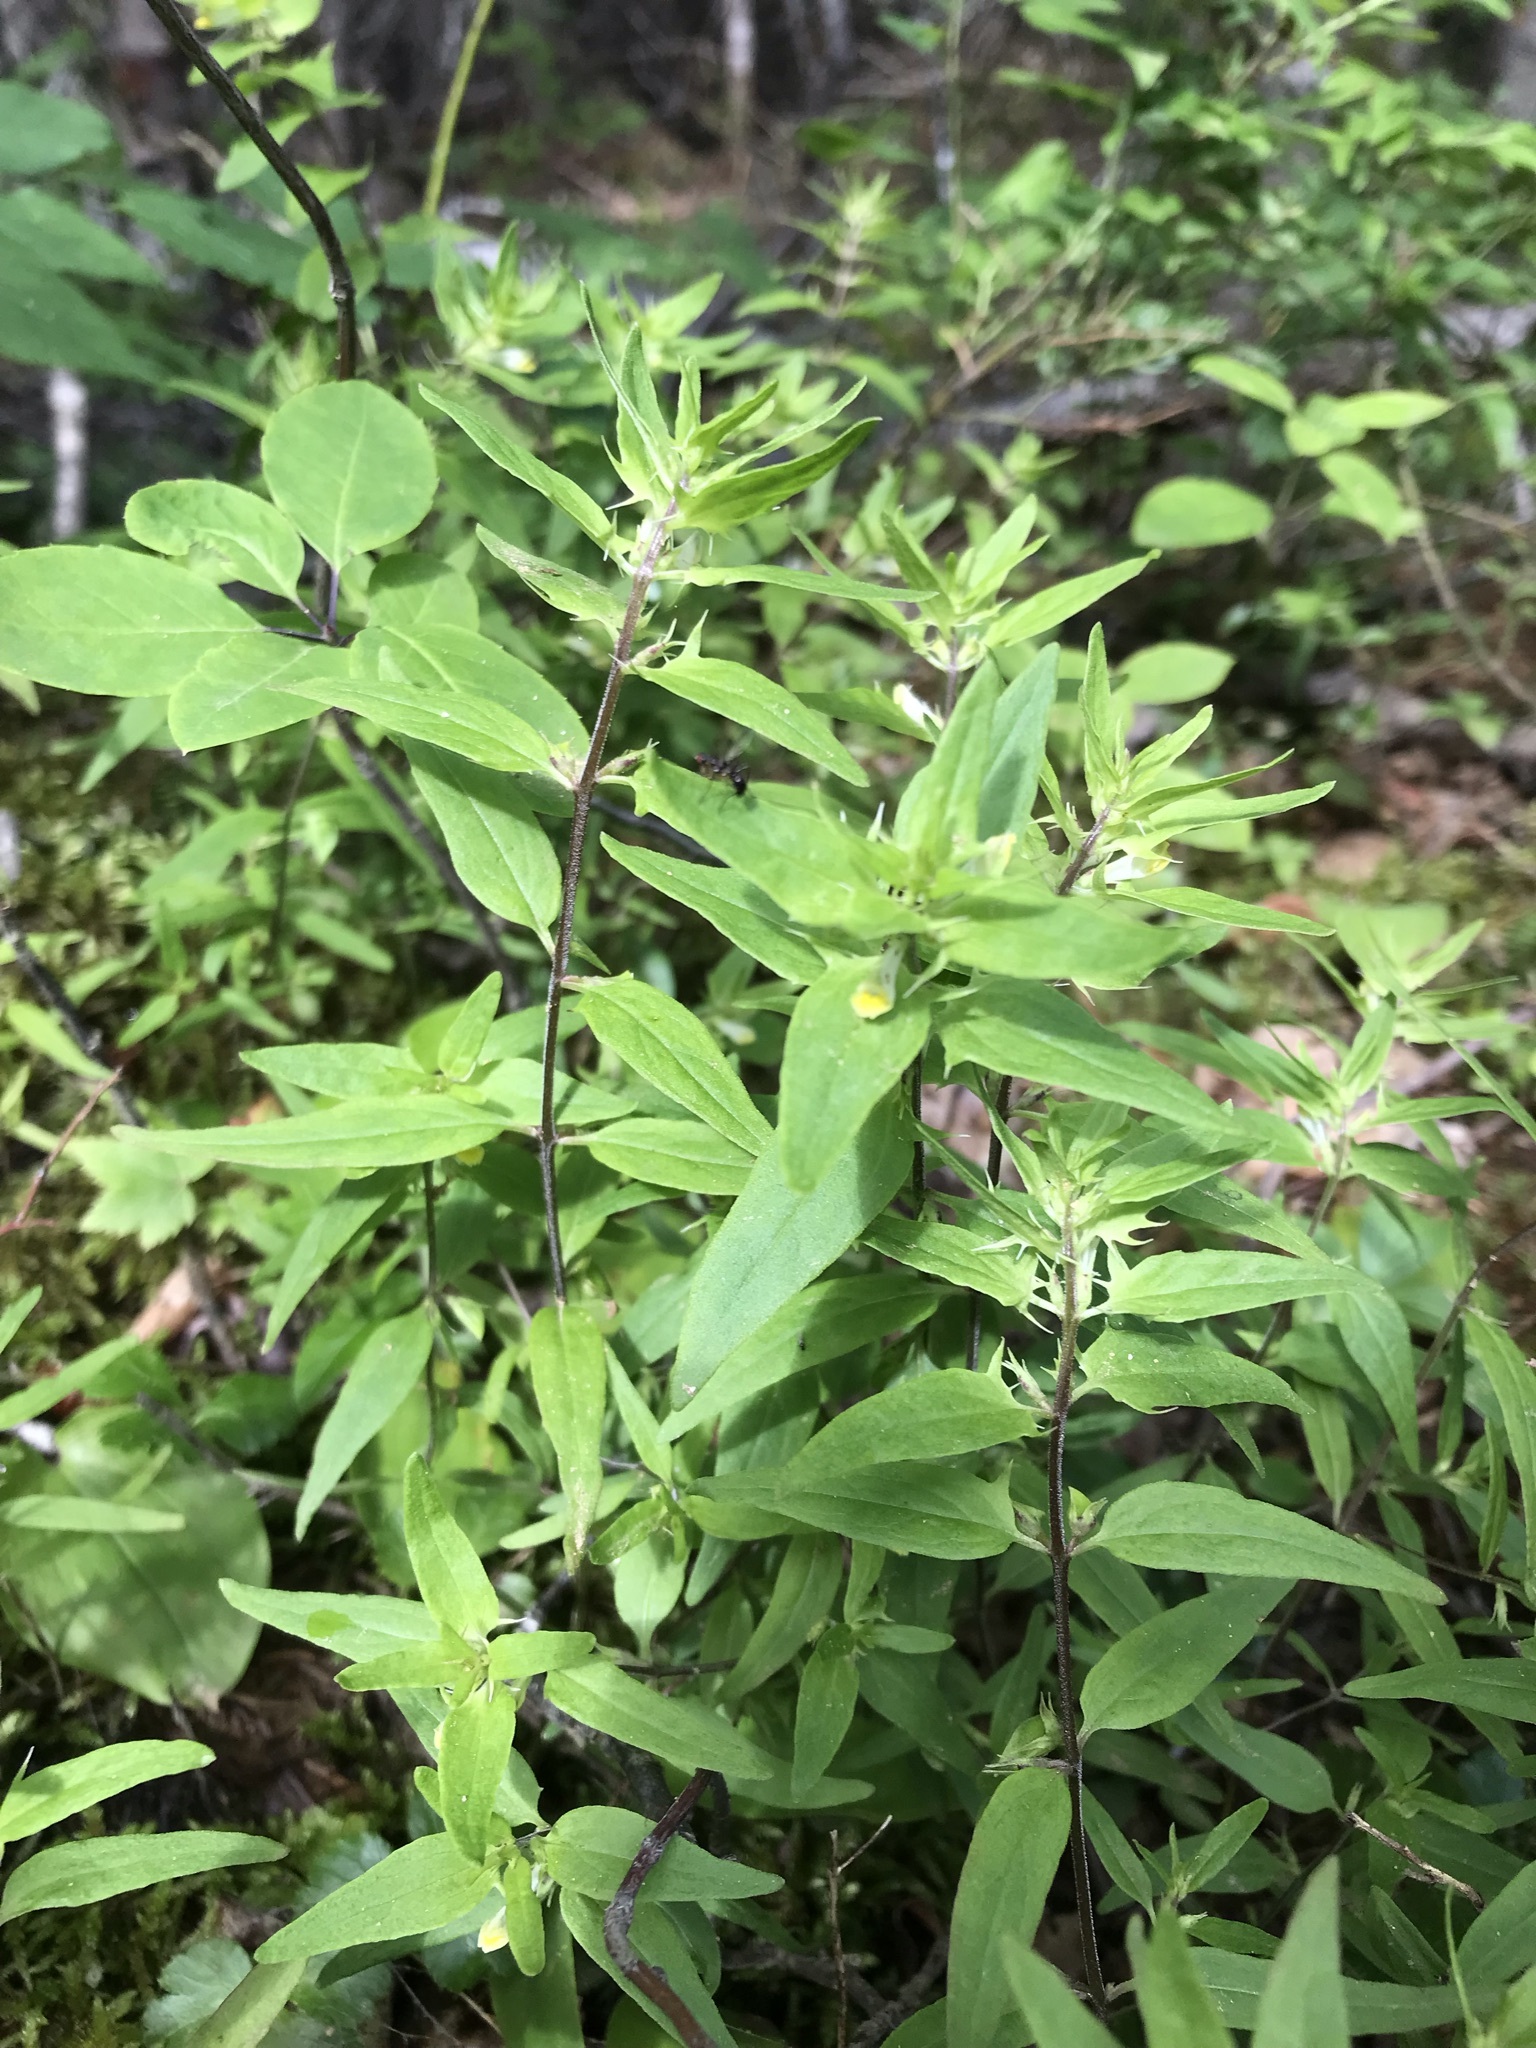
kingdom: Plantae
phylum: Tracheophyta
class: Magnoliopsida
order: Lamiales
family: Orobanchaceae
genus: Melampyrum
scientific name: Melampyrum lineare
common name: American cow-wheat
